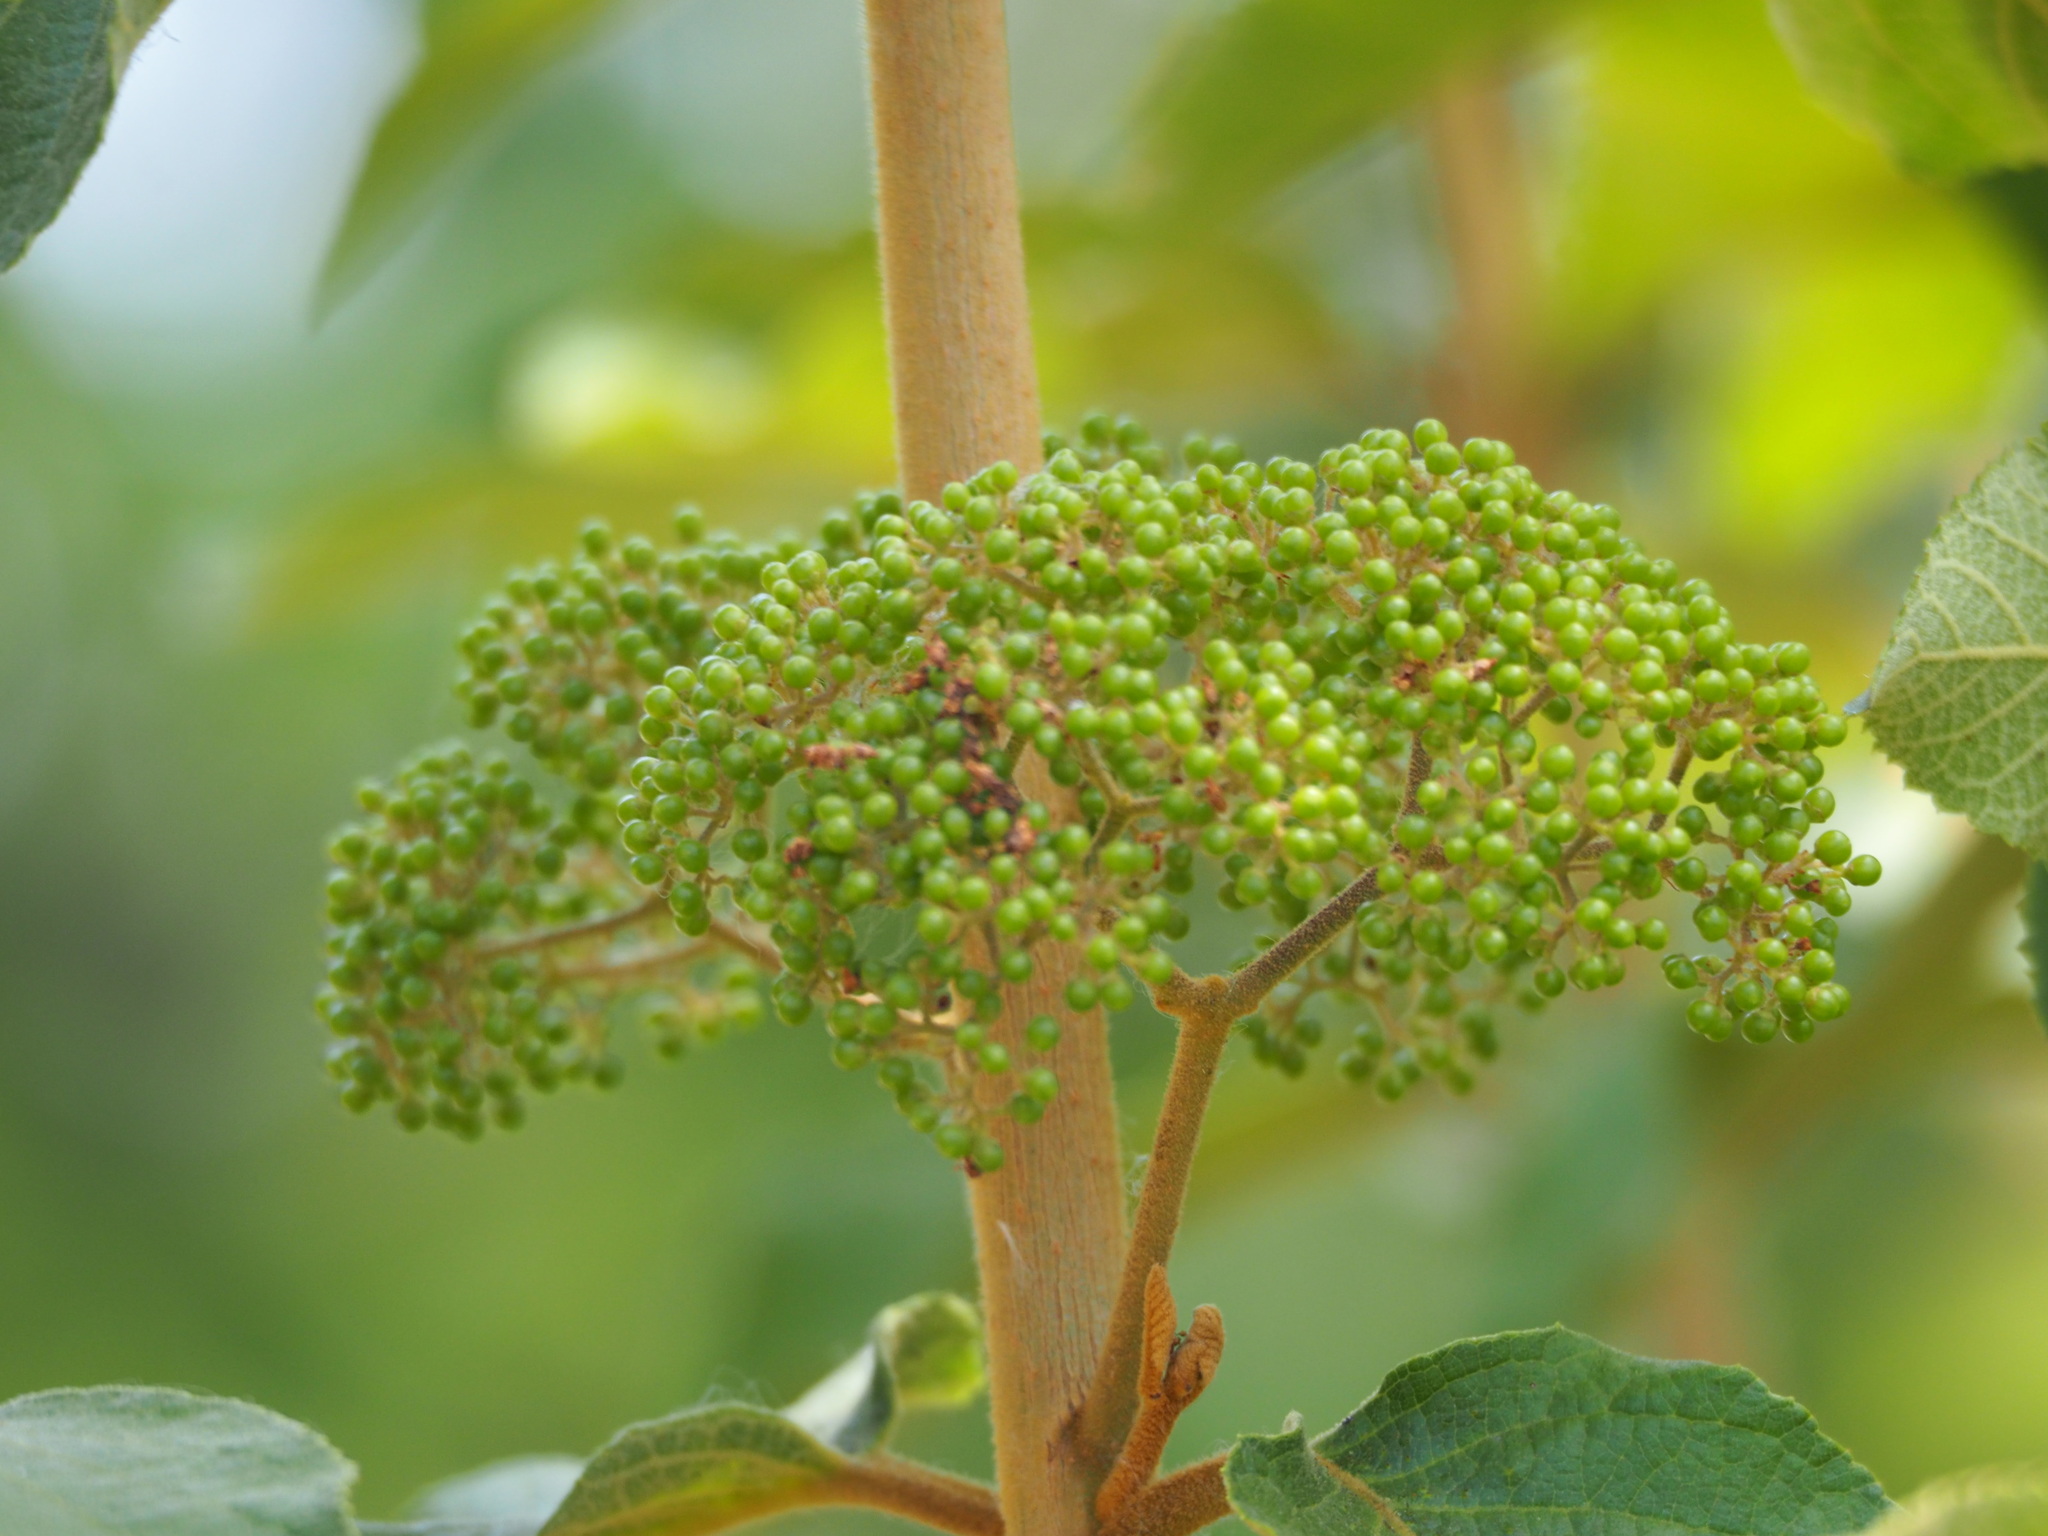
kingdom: Plantae
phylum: Tracheophyta
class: Magnoliopsida
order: Lamiales
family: Lamiaceae
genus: Callicarpa
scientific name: Callicarpa pedunculata
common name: Velvetleaf
